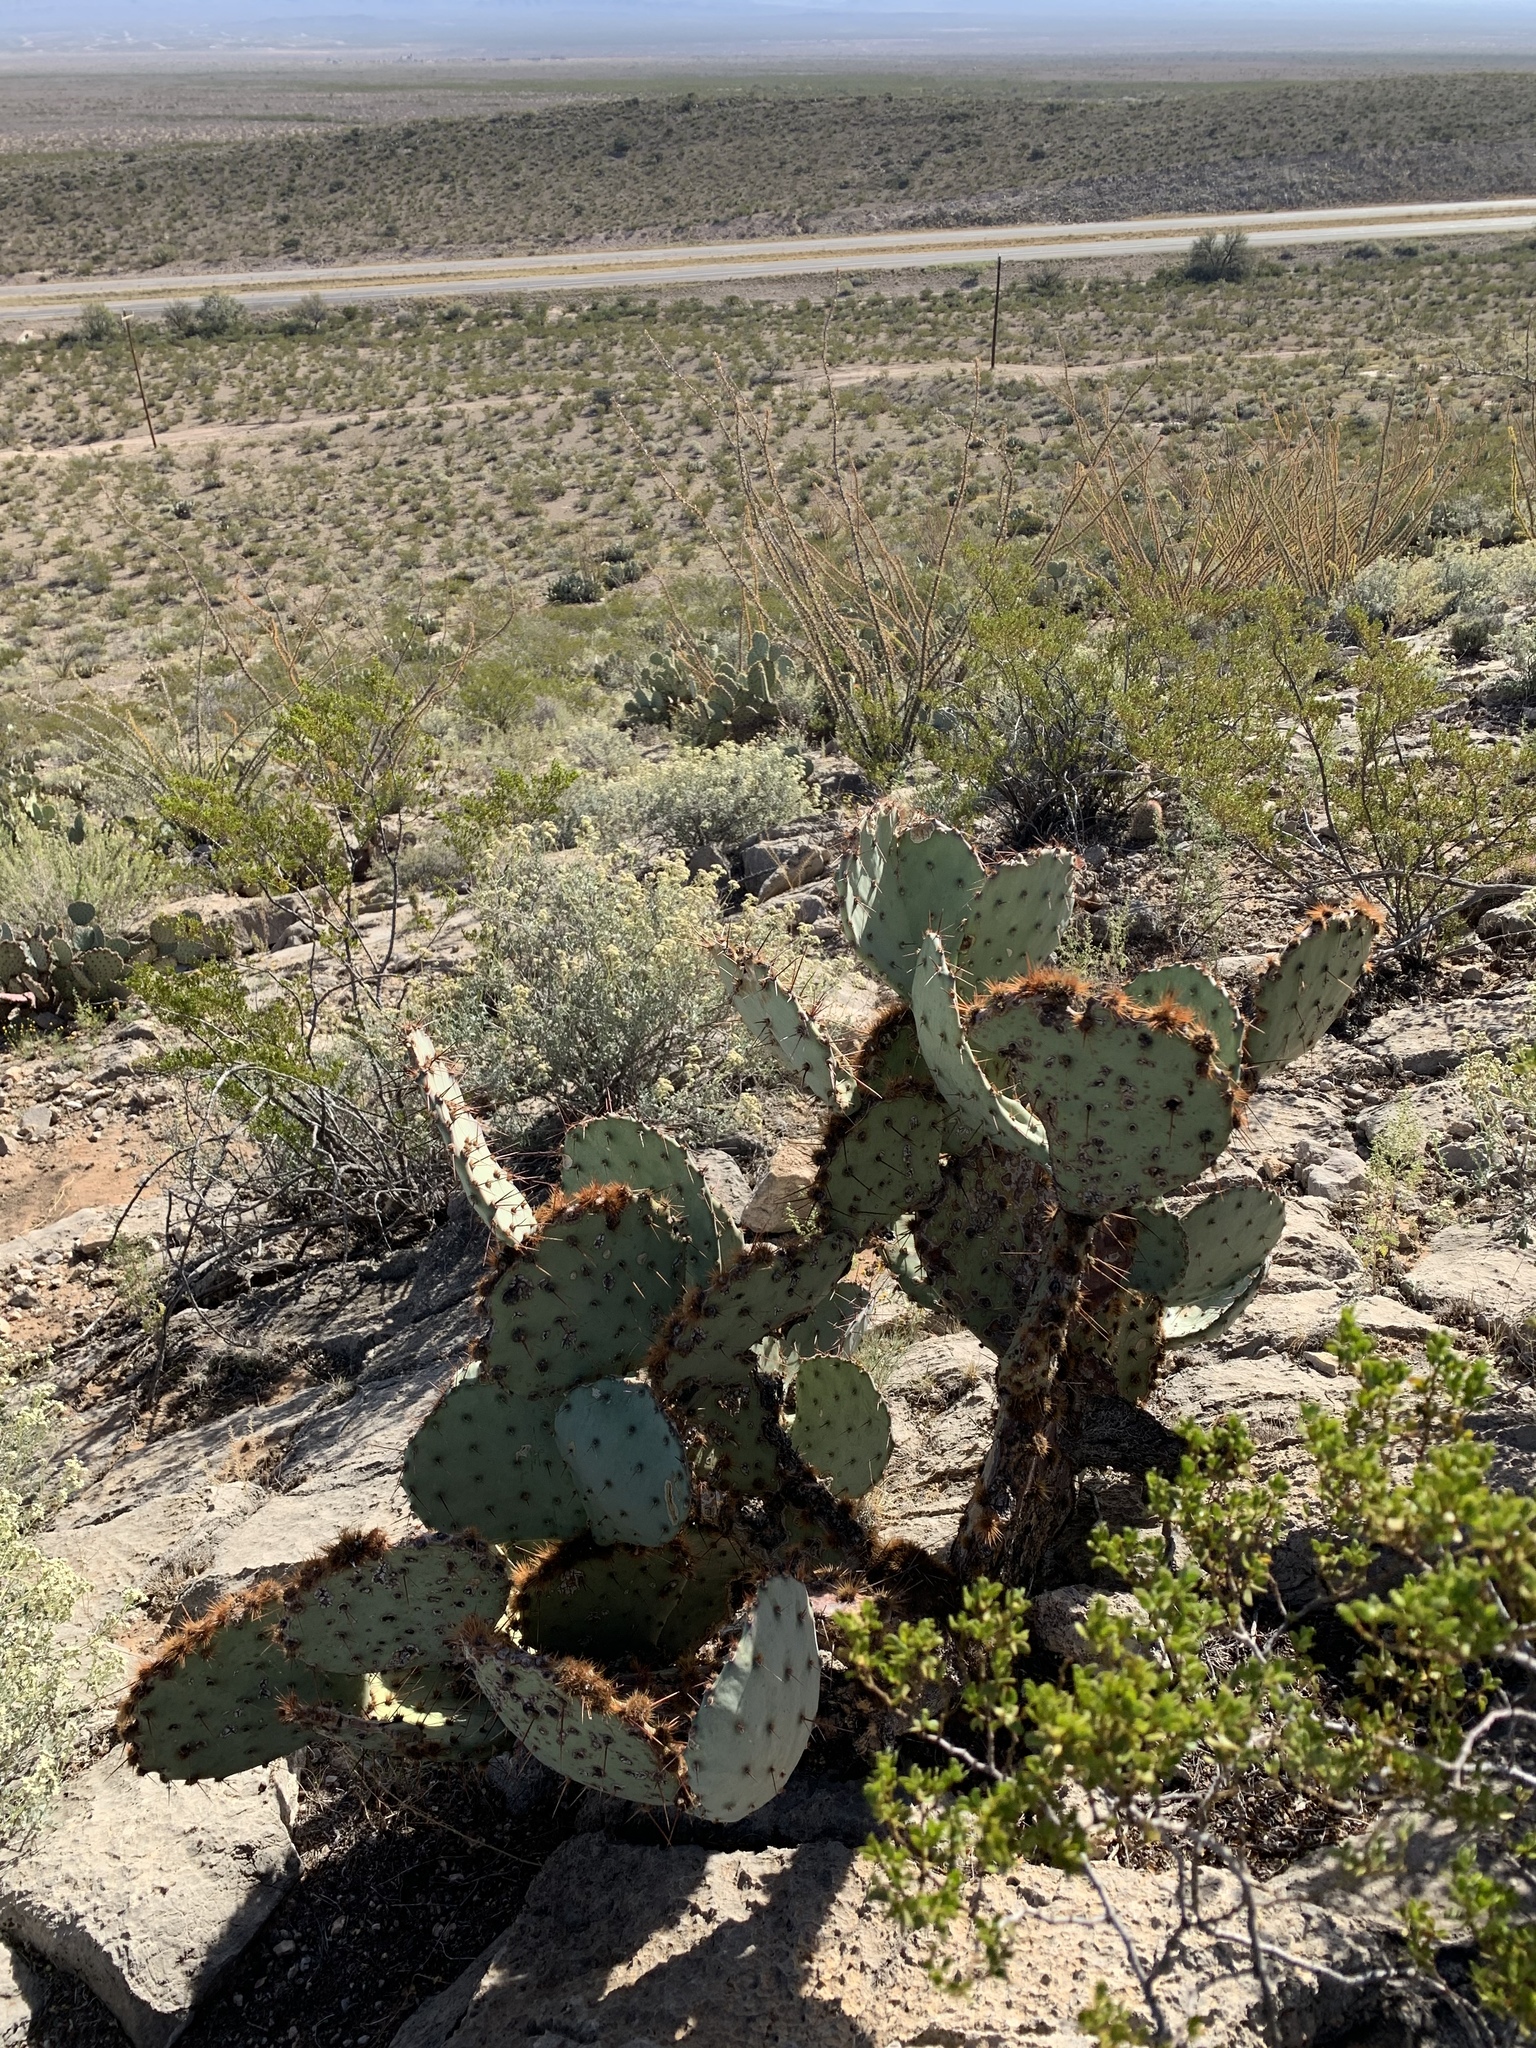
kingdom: Plantae
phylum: Tracheophyta
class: Magnoliopsida
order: Caryophyllales
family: Cactaceae
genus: Opuntia
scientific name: Opuntia engelmannii
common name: Cactus-apple
